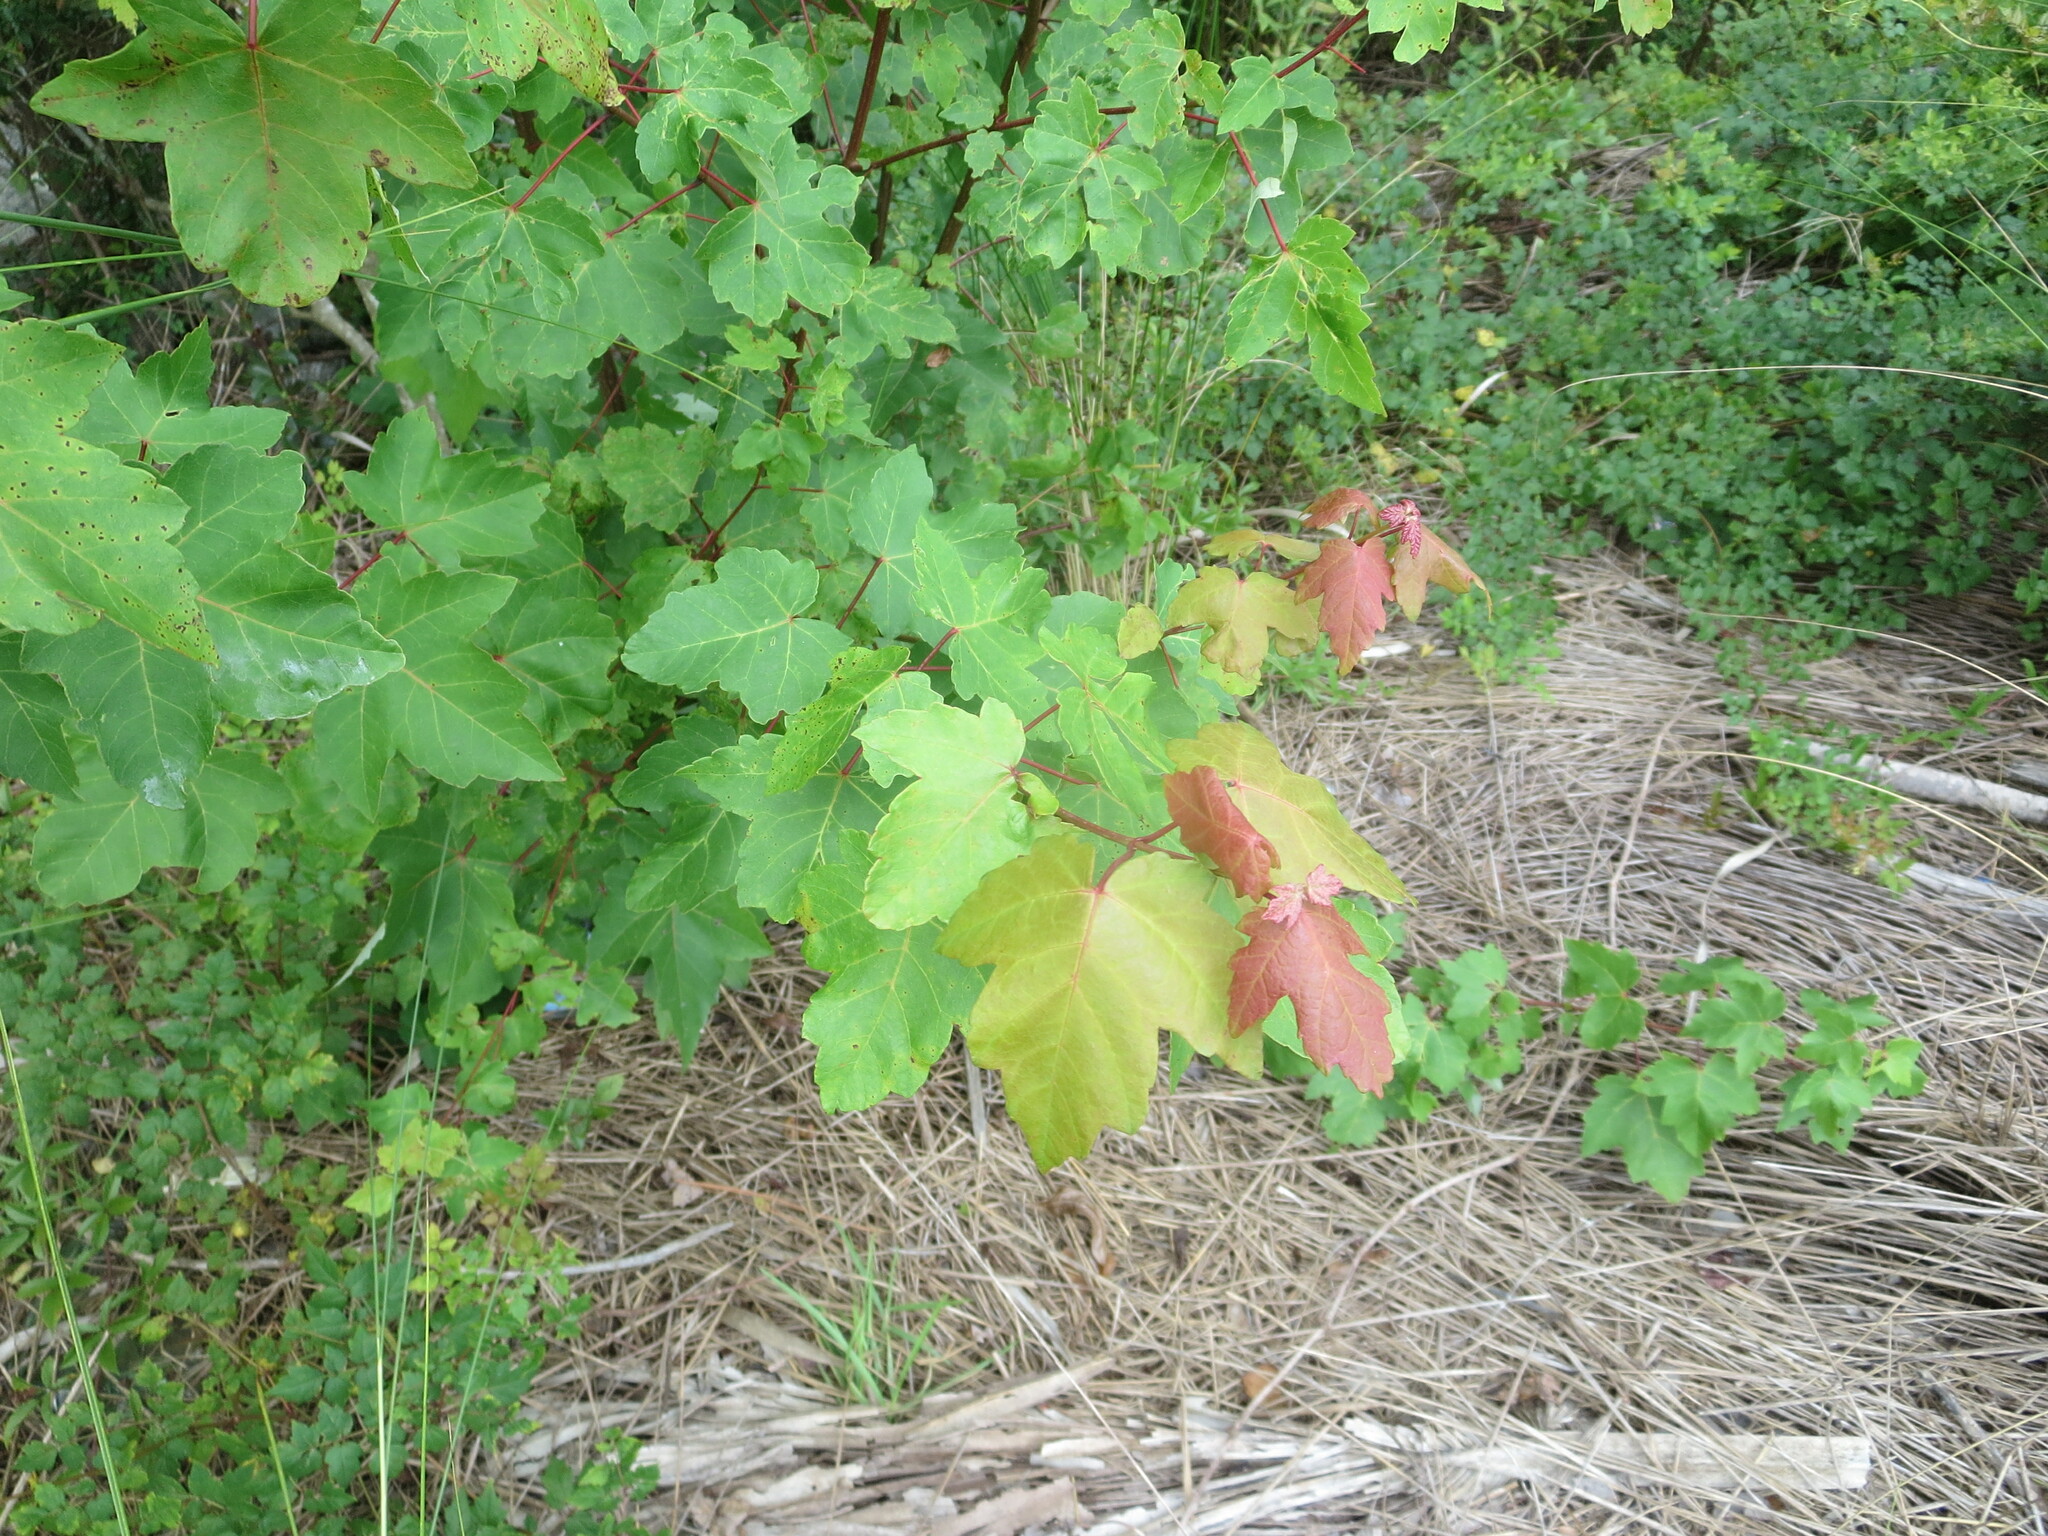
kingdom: Plantae
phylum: Tracheophyta
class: Magnoliopsida
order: Sapindales
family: Sapindaceae
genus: Acer
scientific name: Acer rubrum
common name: Red maple
